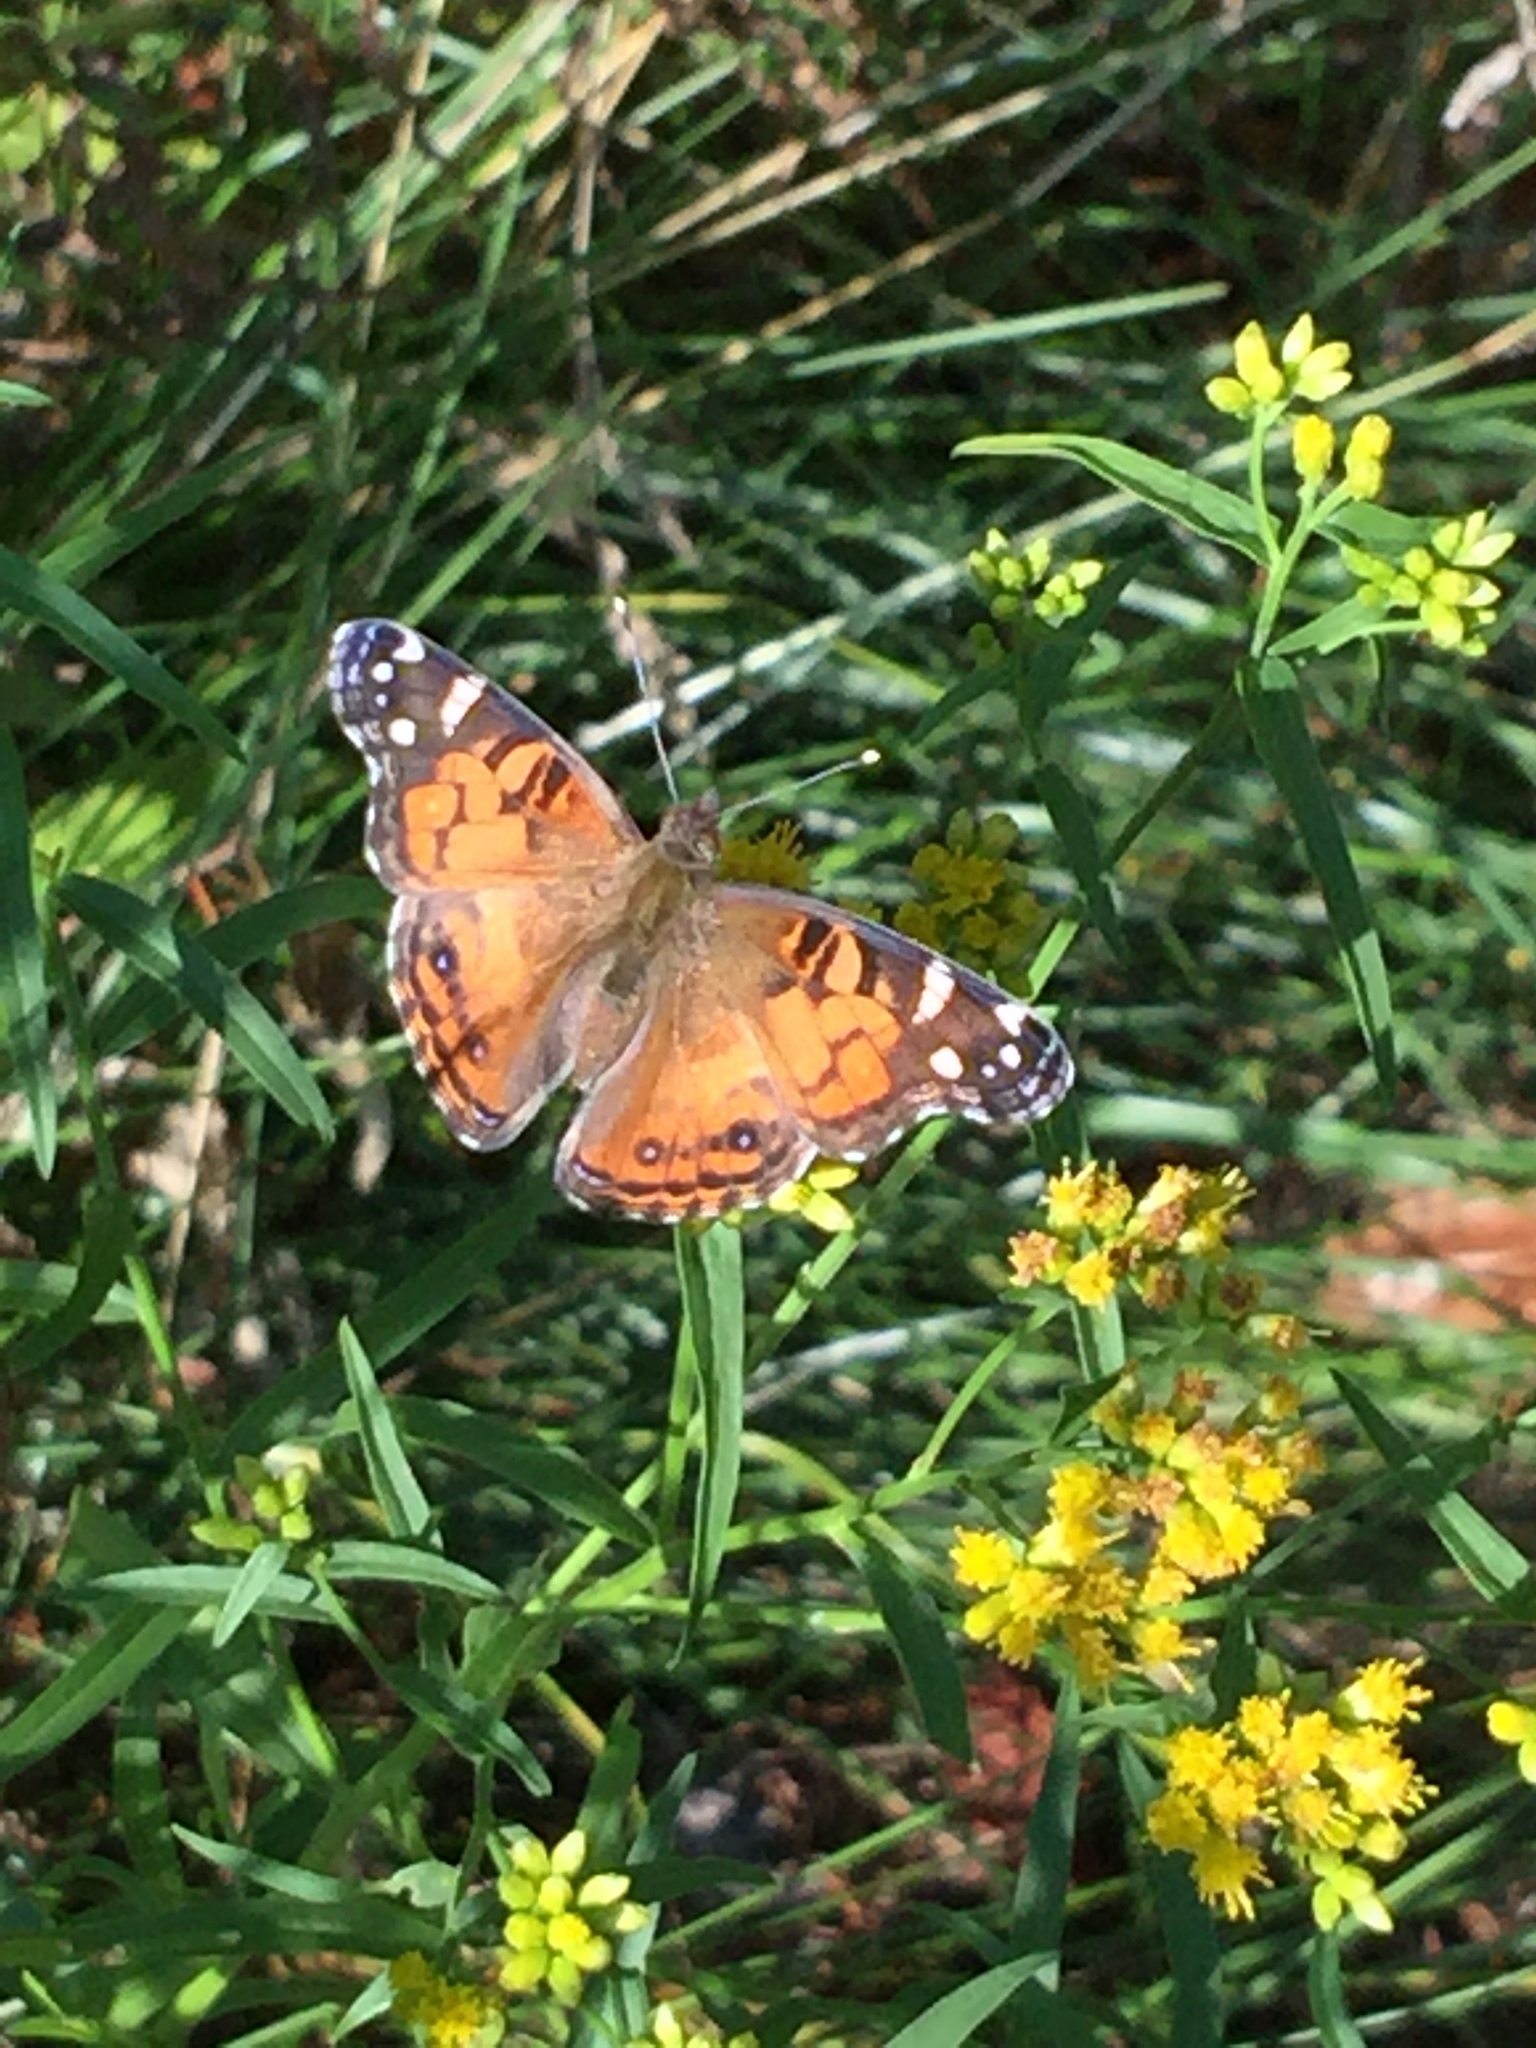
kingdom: Animalia
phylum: Arthropoda
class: Insecta
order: Lepidoptera
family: Nymphalidae
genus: Vanessa
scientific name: Vanessa virginiensis
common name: American lady
